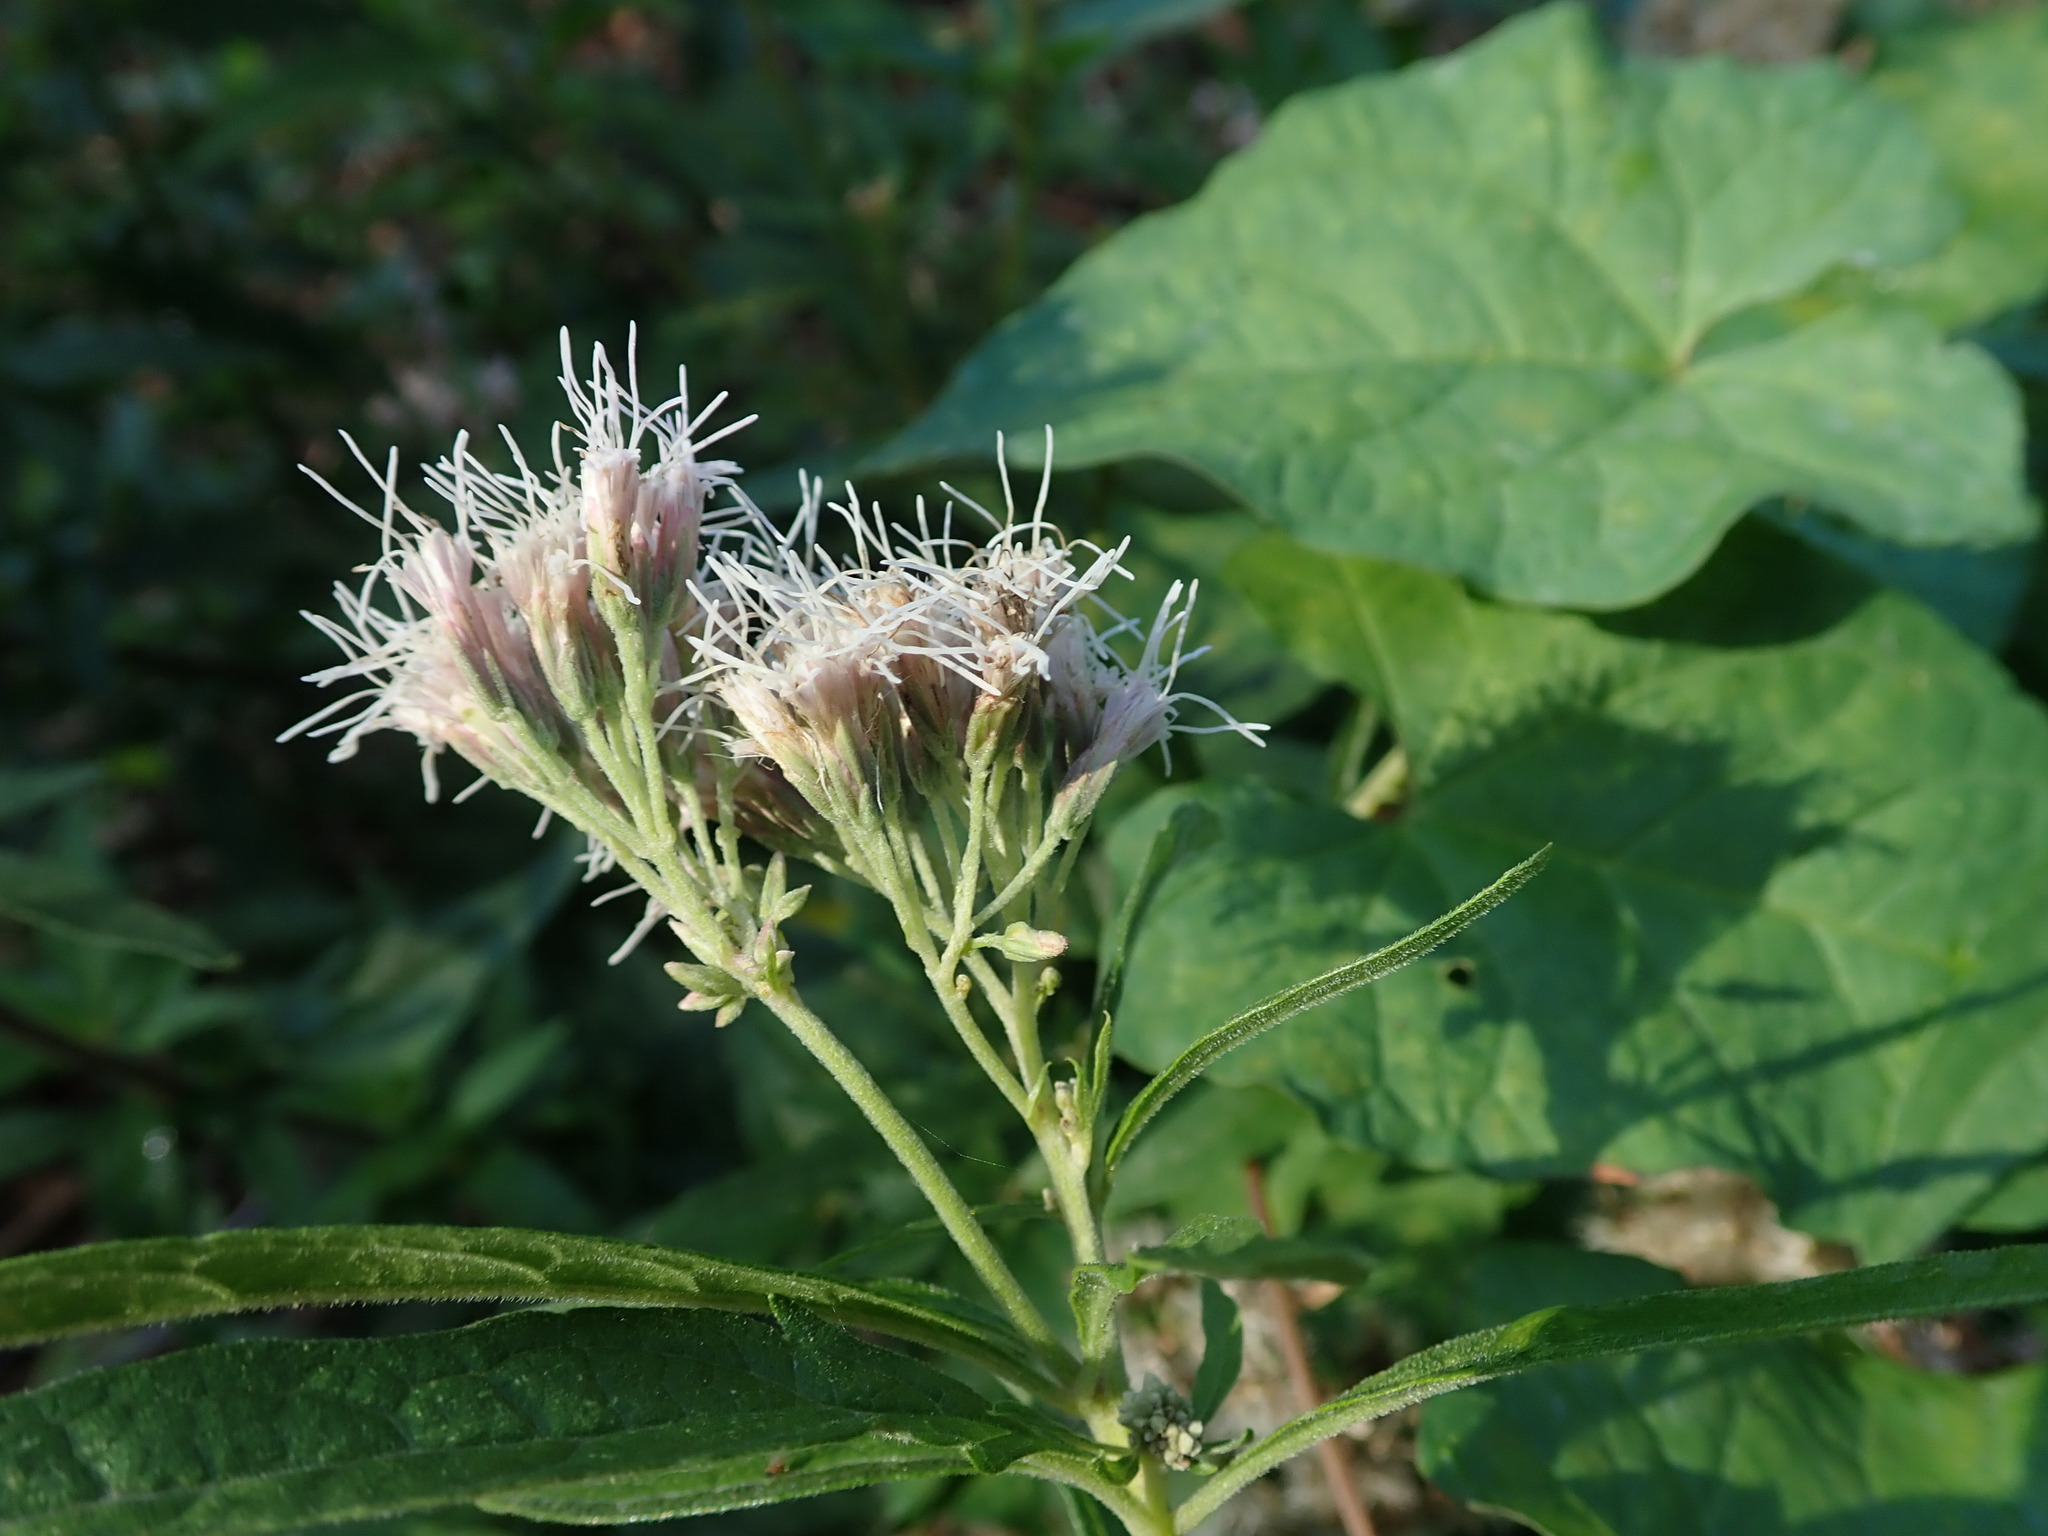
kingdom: Plantae
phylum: Tracheophyta
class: Magnoliopsida
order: Asterales
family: Asteraceae
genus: Eupatorium
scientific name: Eupatorium cannabinum
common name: Hemp-agrimony
